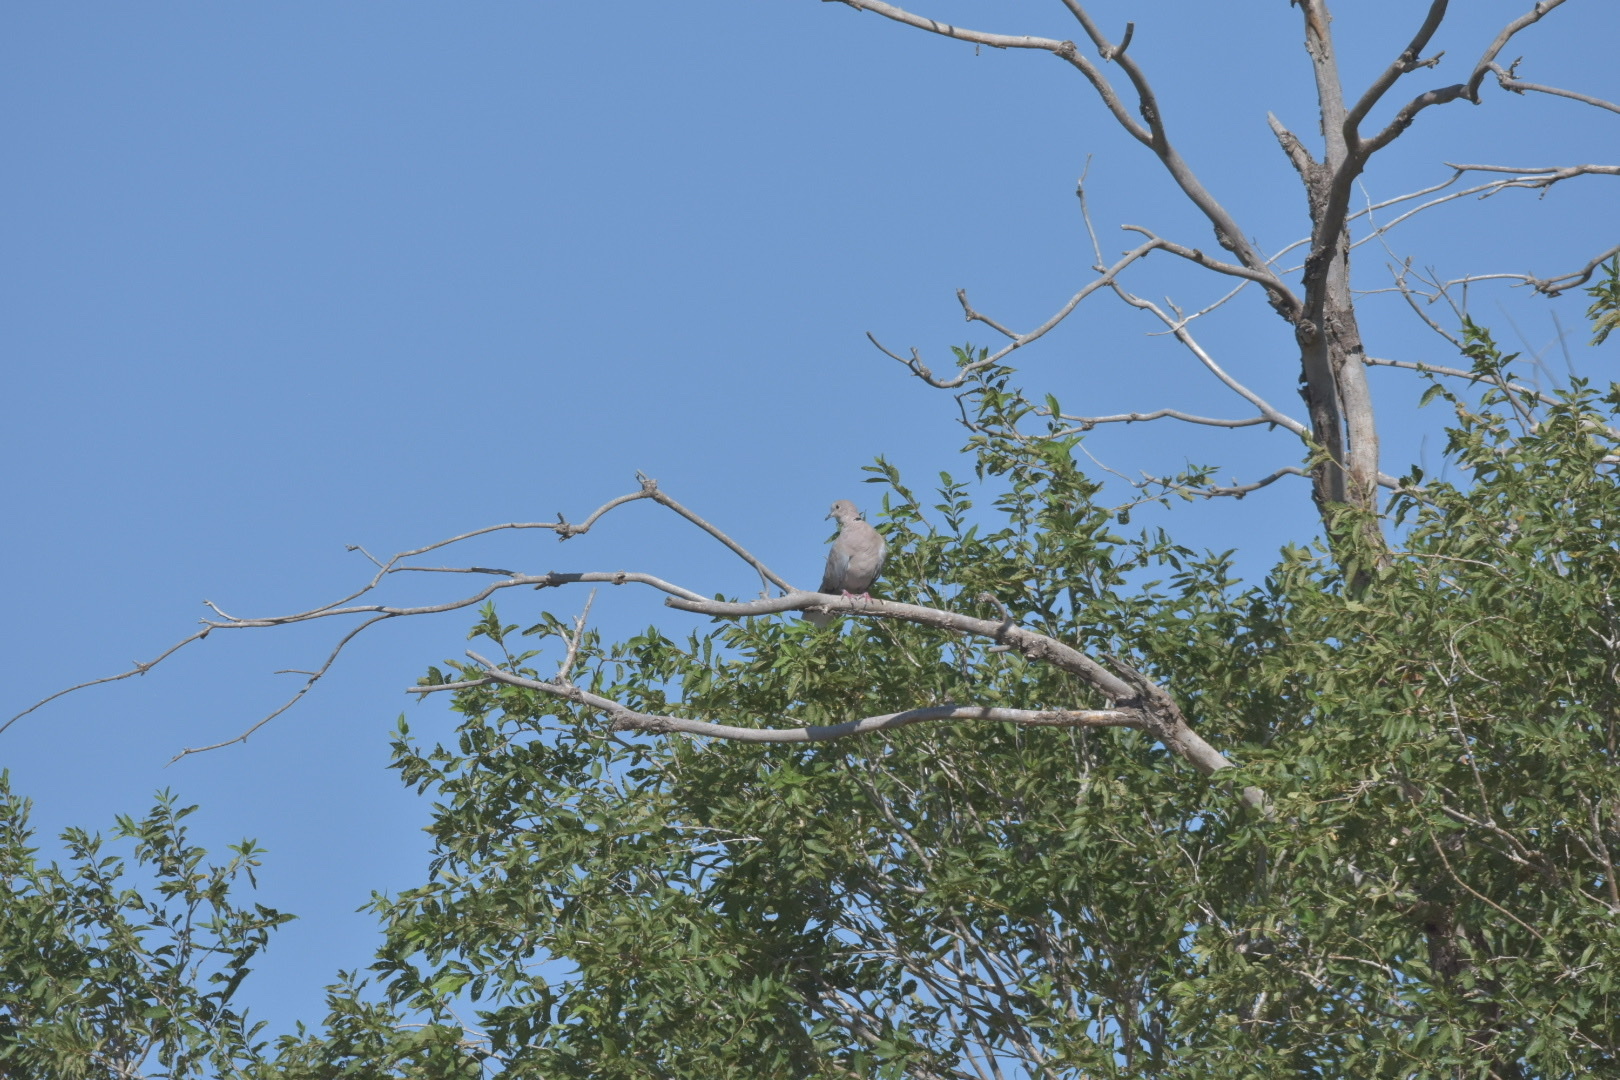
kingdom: Animalia
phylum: Chordata
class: Aves
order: Columbiformes
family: Columbidae
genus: Streptopelia
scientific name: Streptopelia decaocto
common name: Eurasian collared dove
